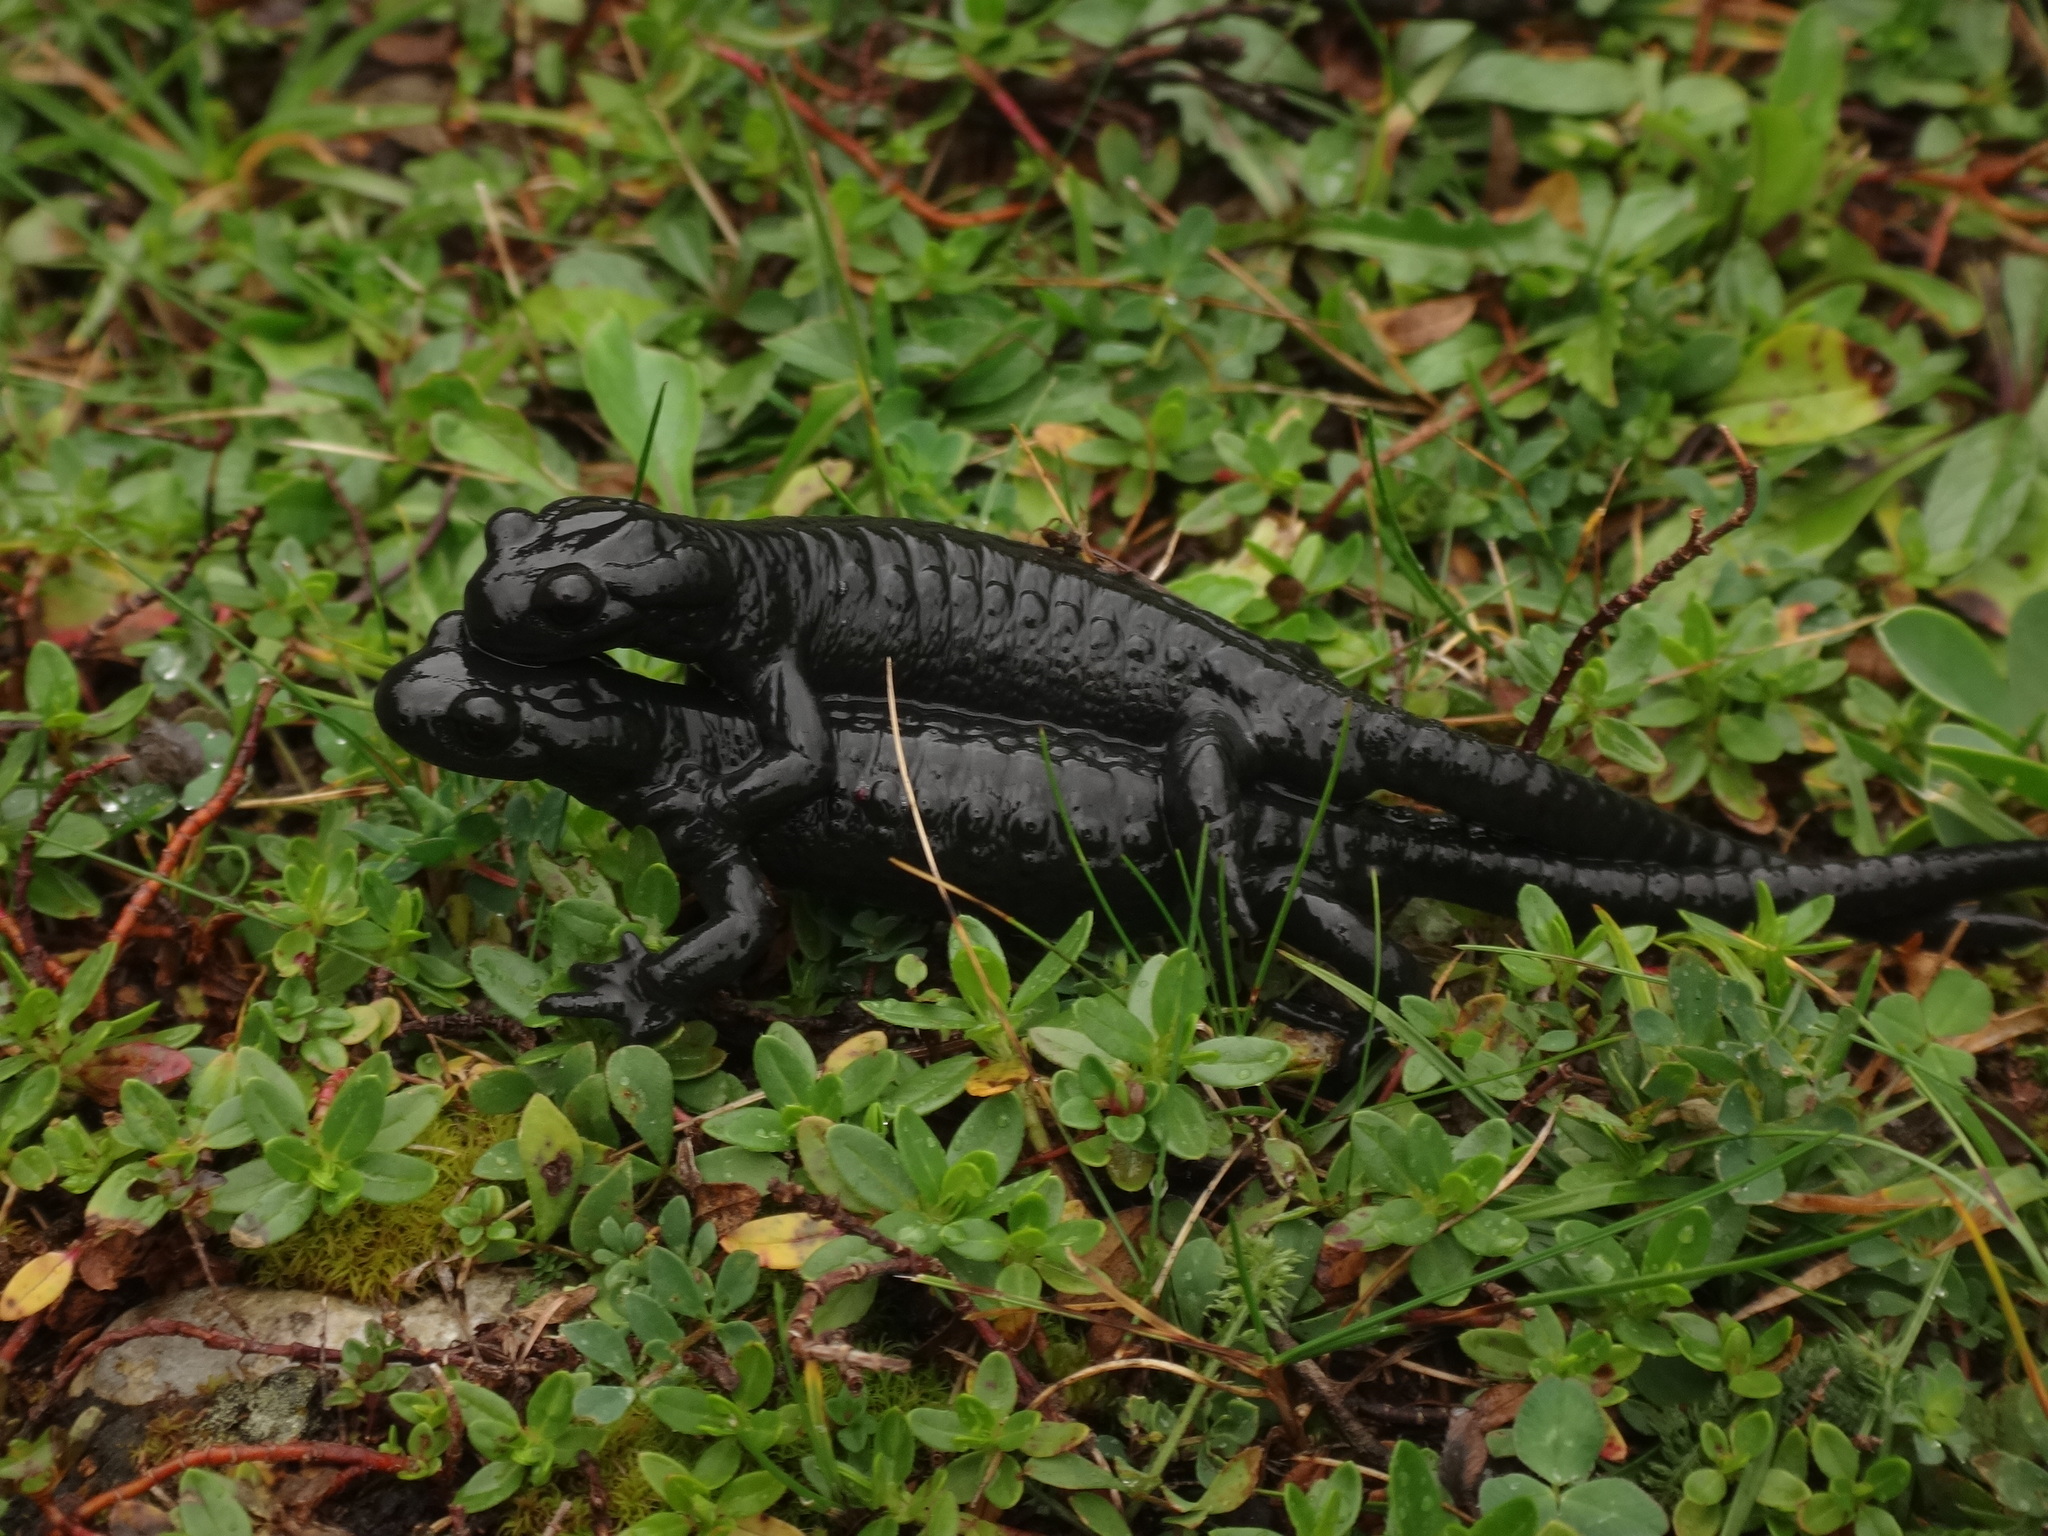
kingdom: Animalia
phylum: Chordata
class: Amphibia
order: Caudata
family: Salamandridae
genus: Salamandra
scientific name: Salamandra atra
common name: Alpine salamander
